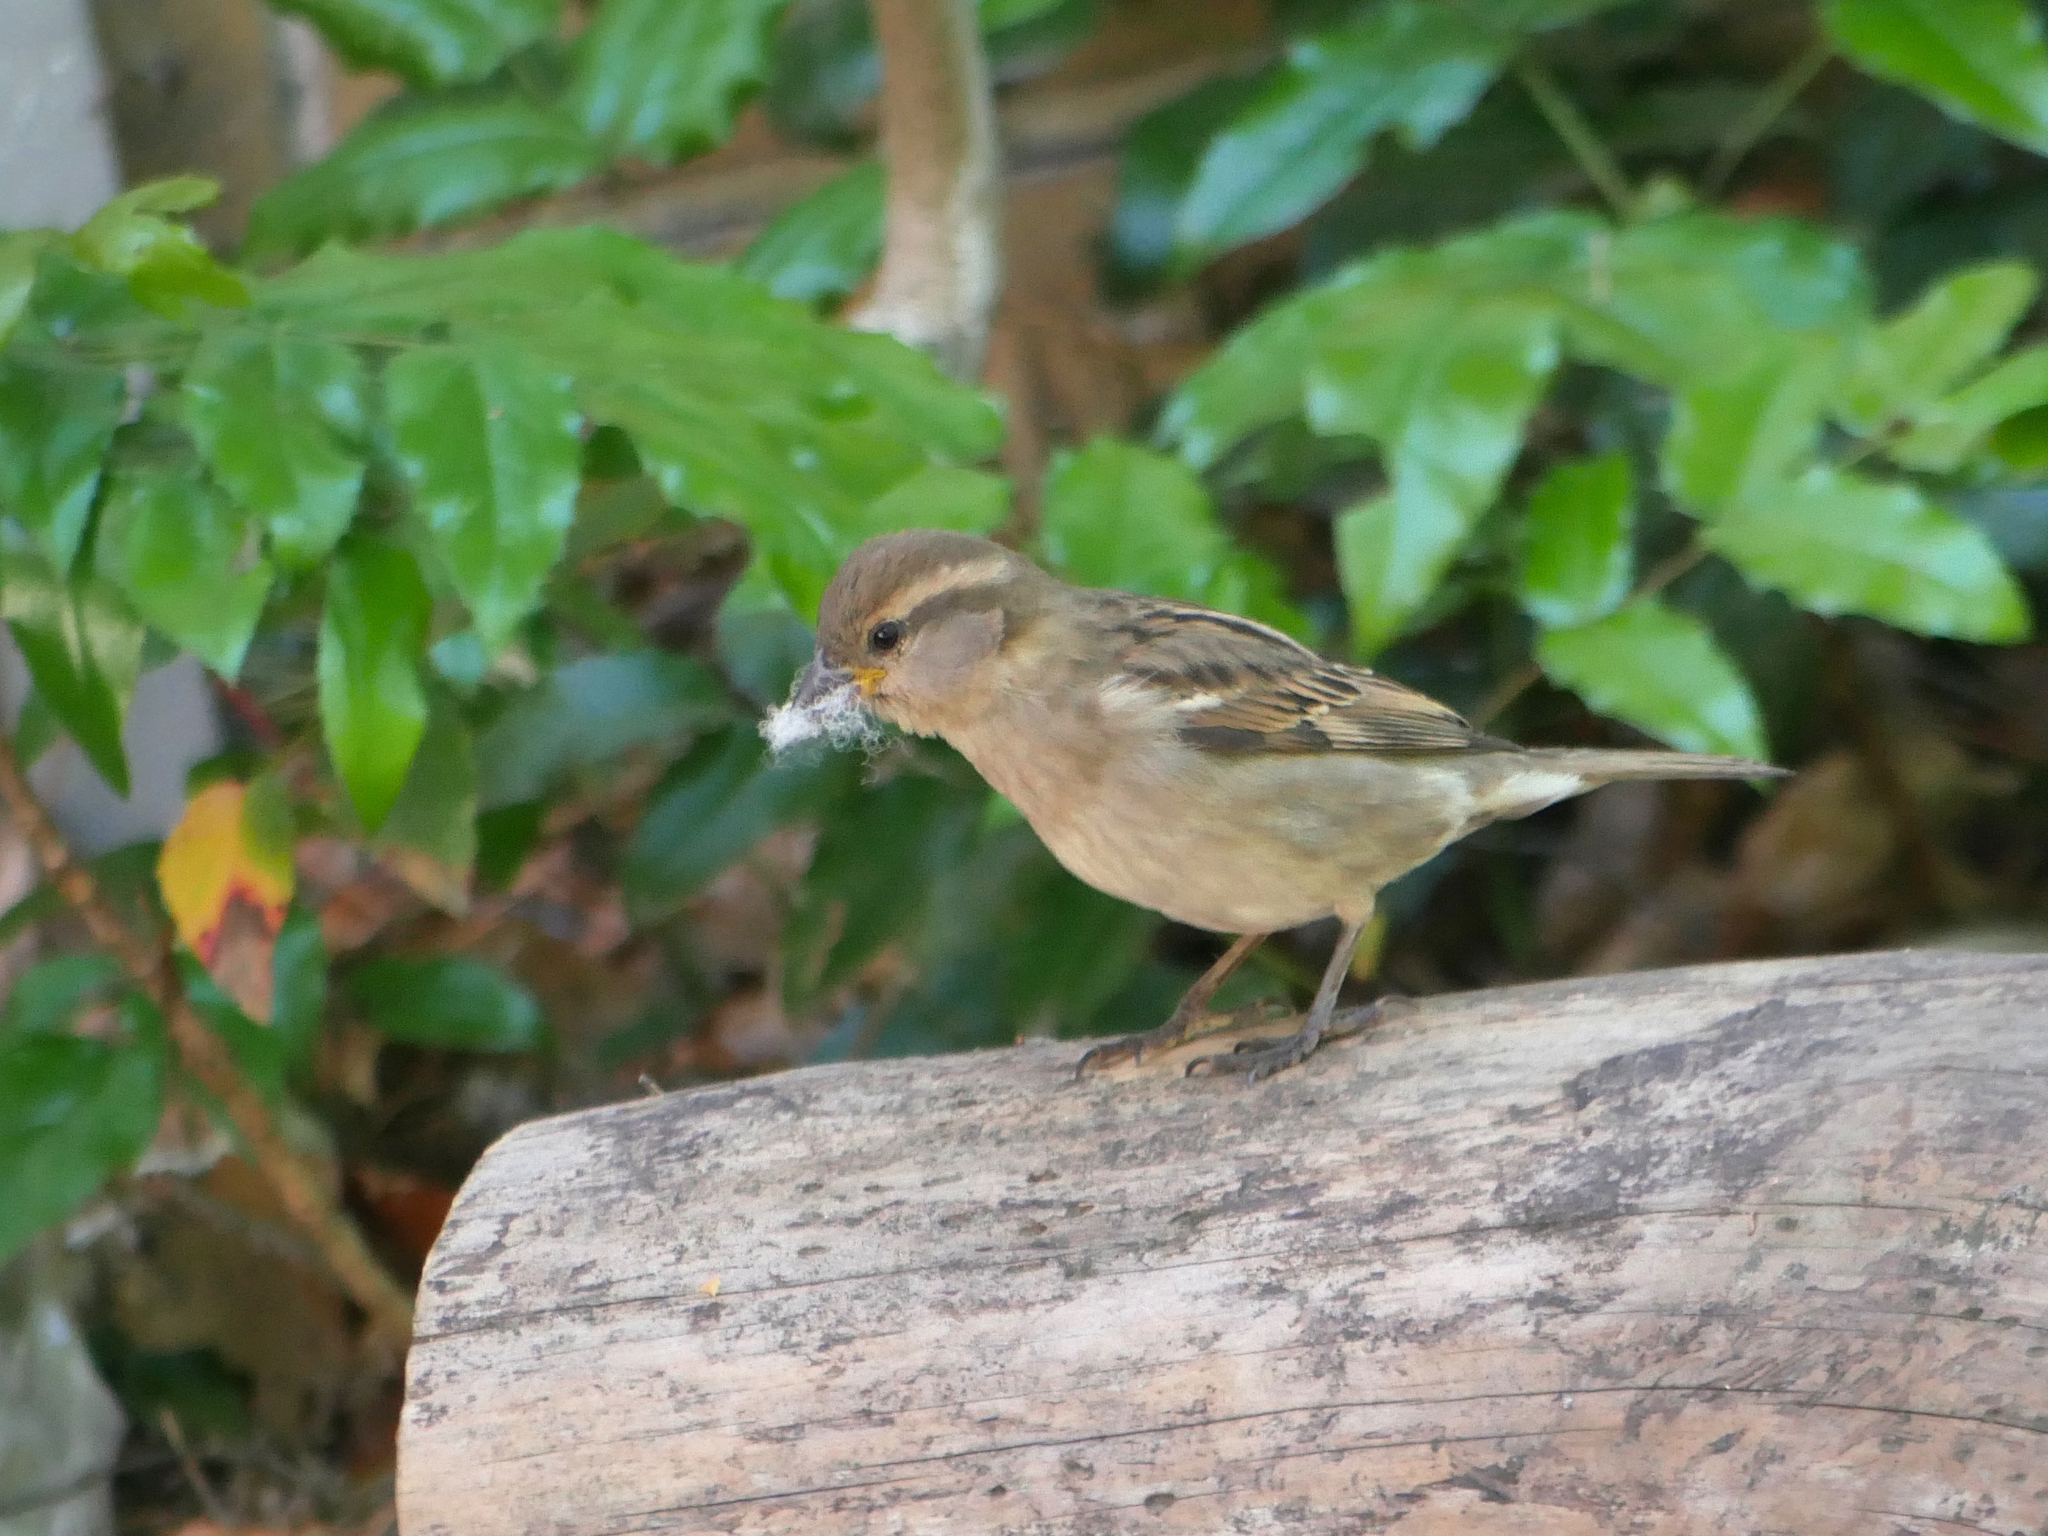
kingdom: Animalia
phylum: Chordata
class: Aves
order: Passeriformes
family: Passeridae
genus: Passer
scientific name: Passer domesticus
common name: House sparrow
